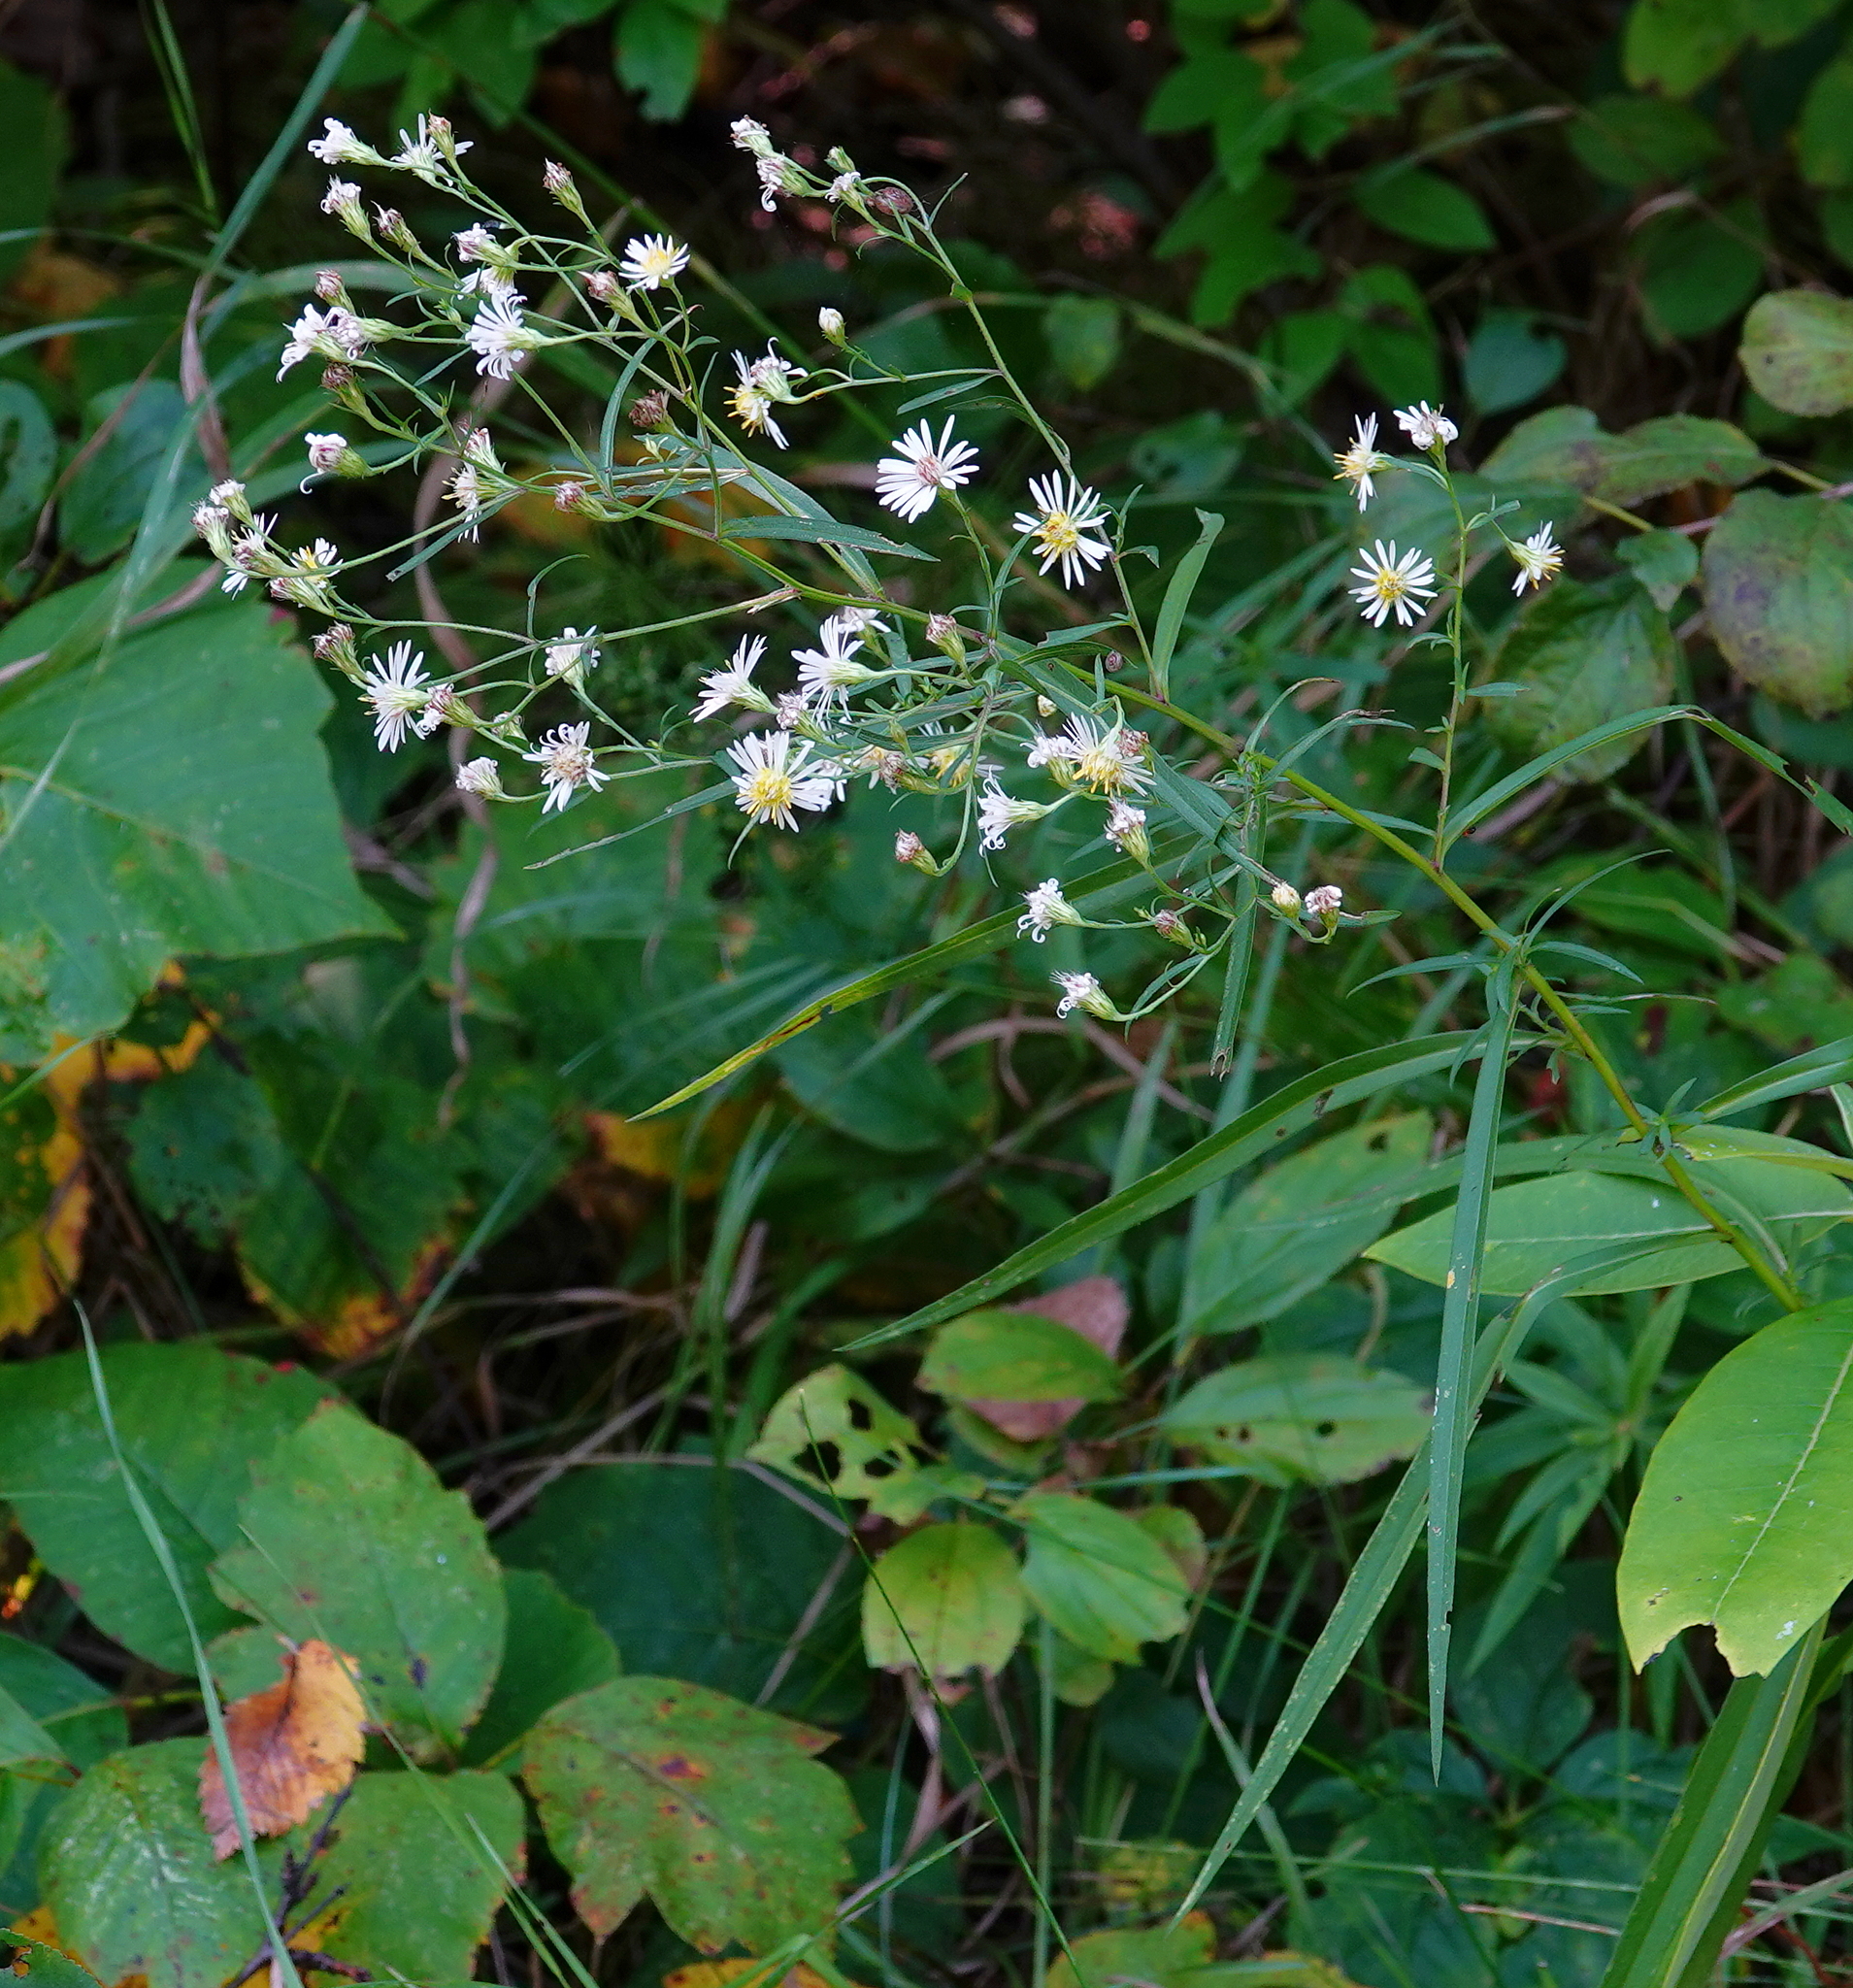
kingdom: Plantae
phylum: Tracheophyta
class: Magnoliopsida
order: Asterales
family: Asteraceae
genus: Symphyotrichum
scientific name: Symphyotrichum lanceolatum
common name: Panicled aster
